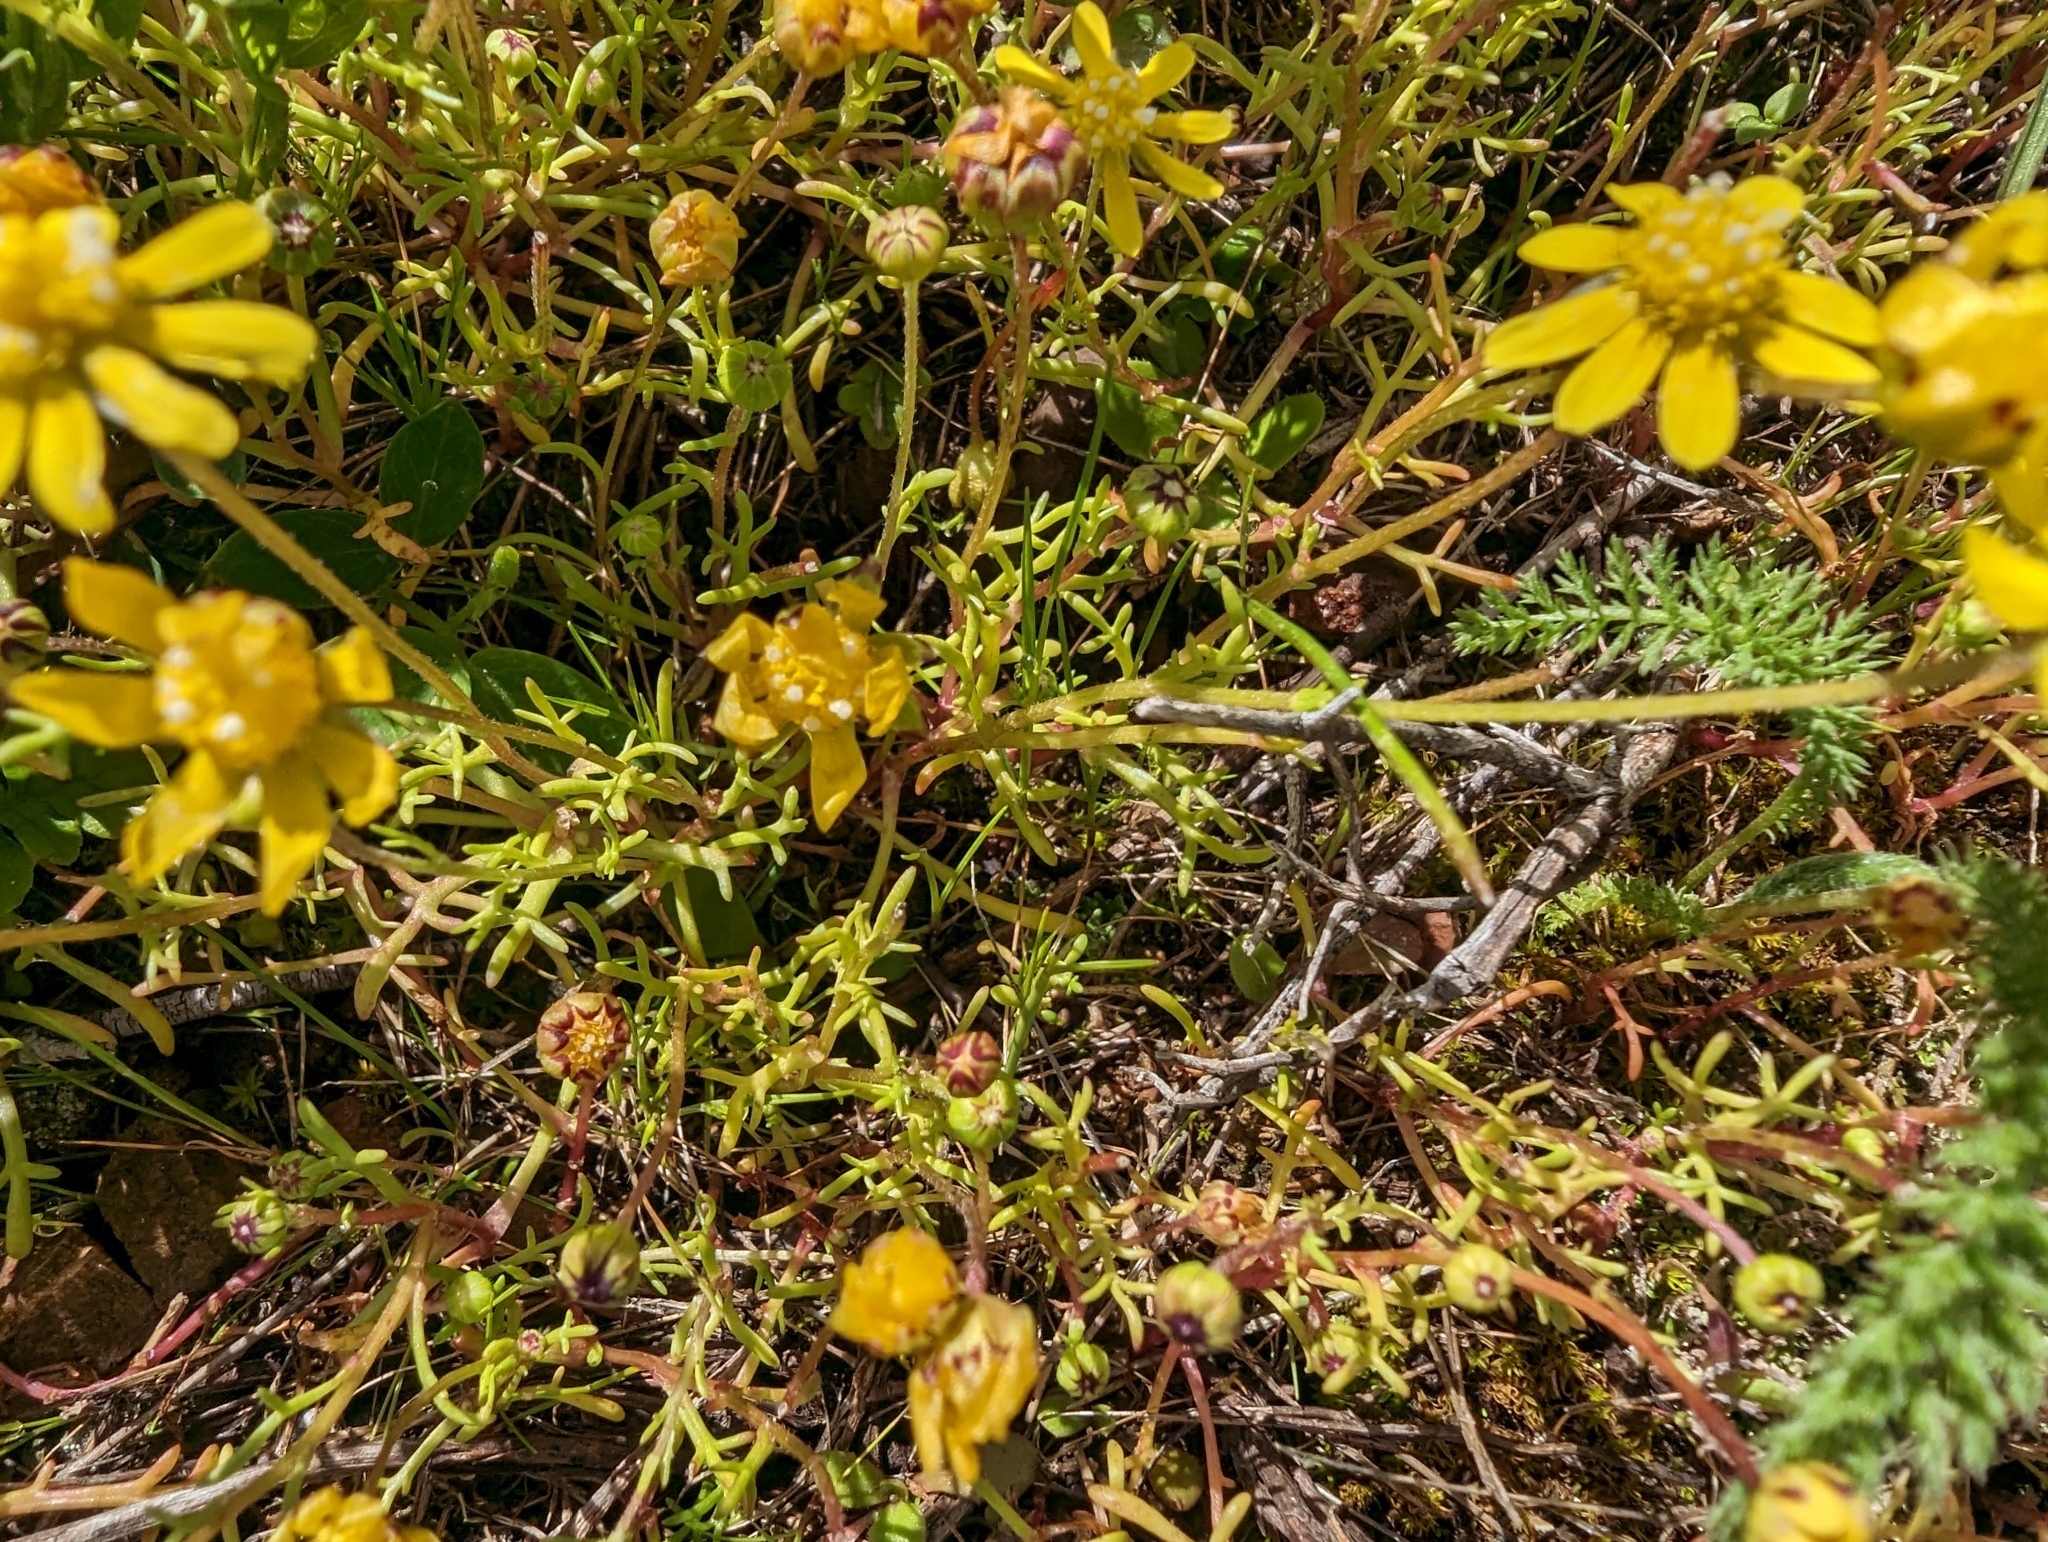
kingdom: Plantae
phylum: Tracheophyta
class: Magnoliopsida
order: Asterales
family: Asteraceae
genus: Blennosperma
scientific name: Blennosperma nanum
